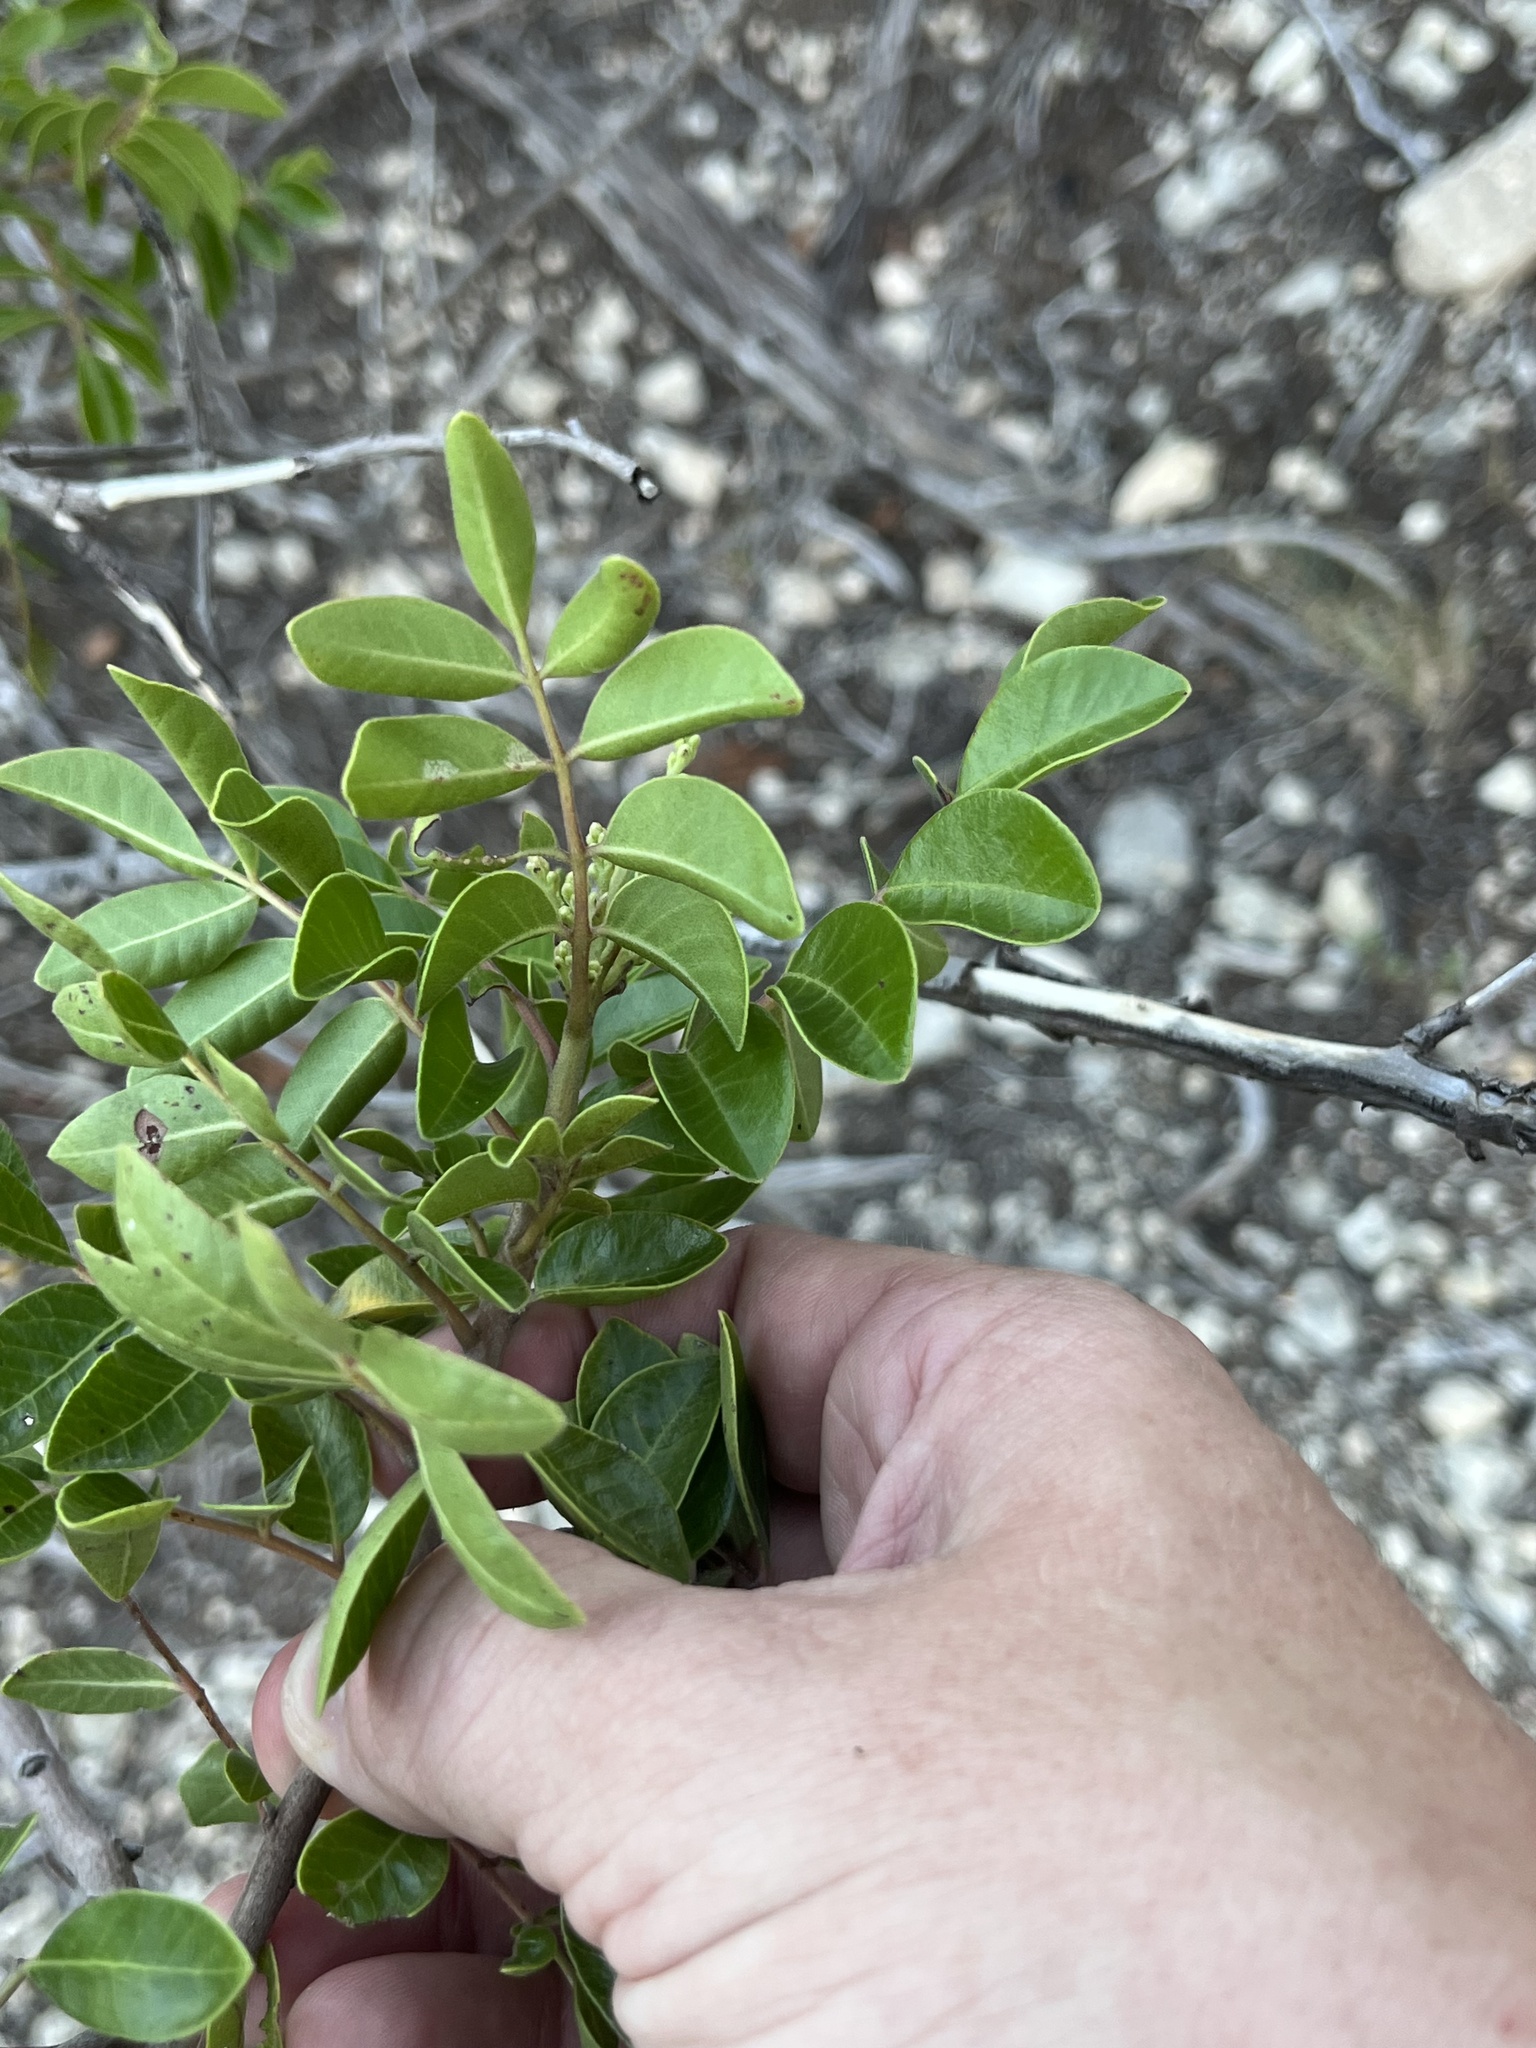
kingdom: Plantae
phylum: Tracheophyta
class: Magnoliopsida
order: Sapindales
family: Anacardiaceae
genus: Rhus
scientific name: Rhus virens
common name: Evergreen sumac
